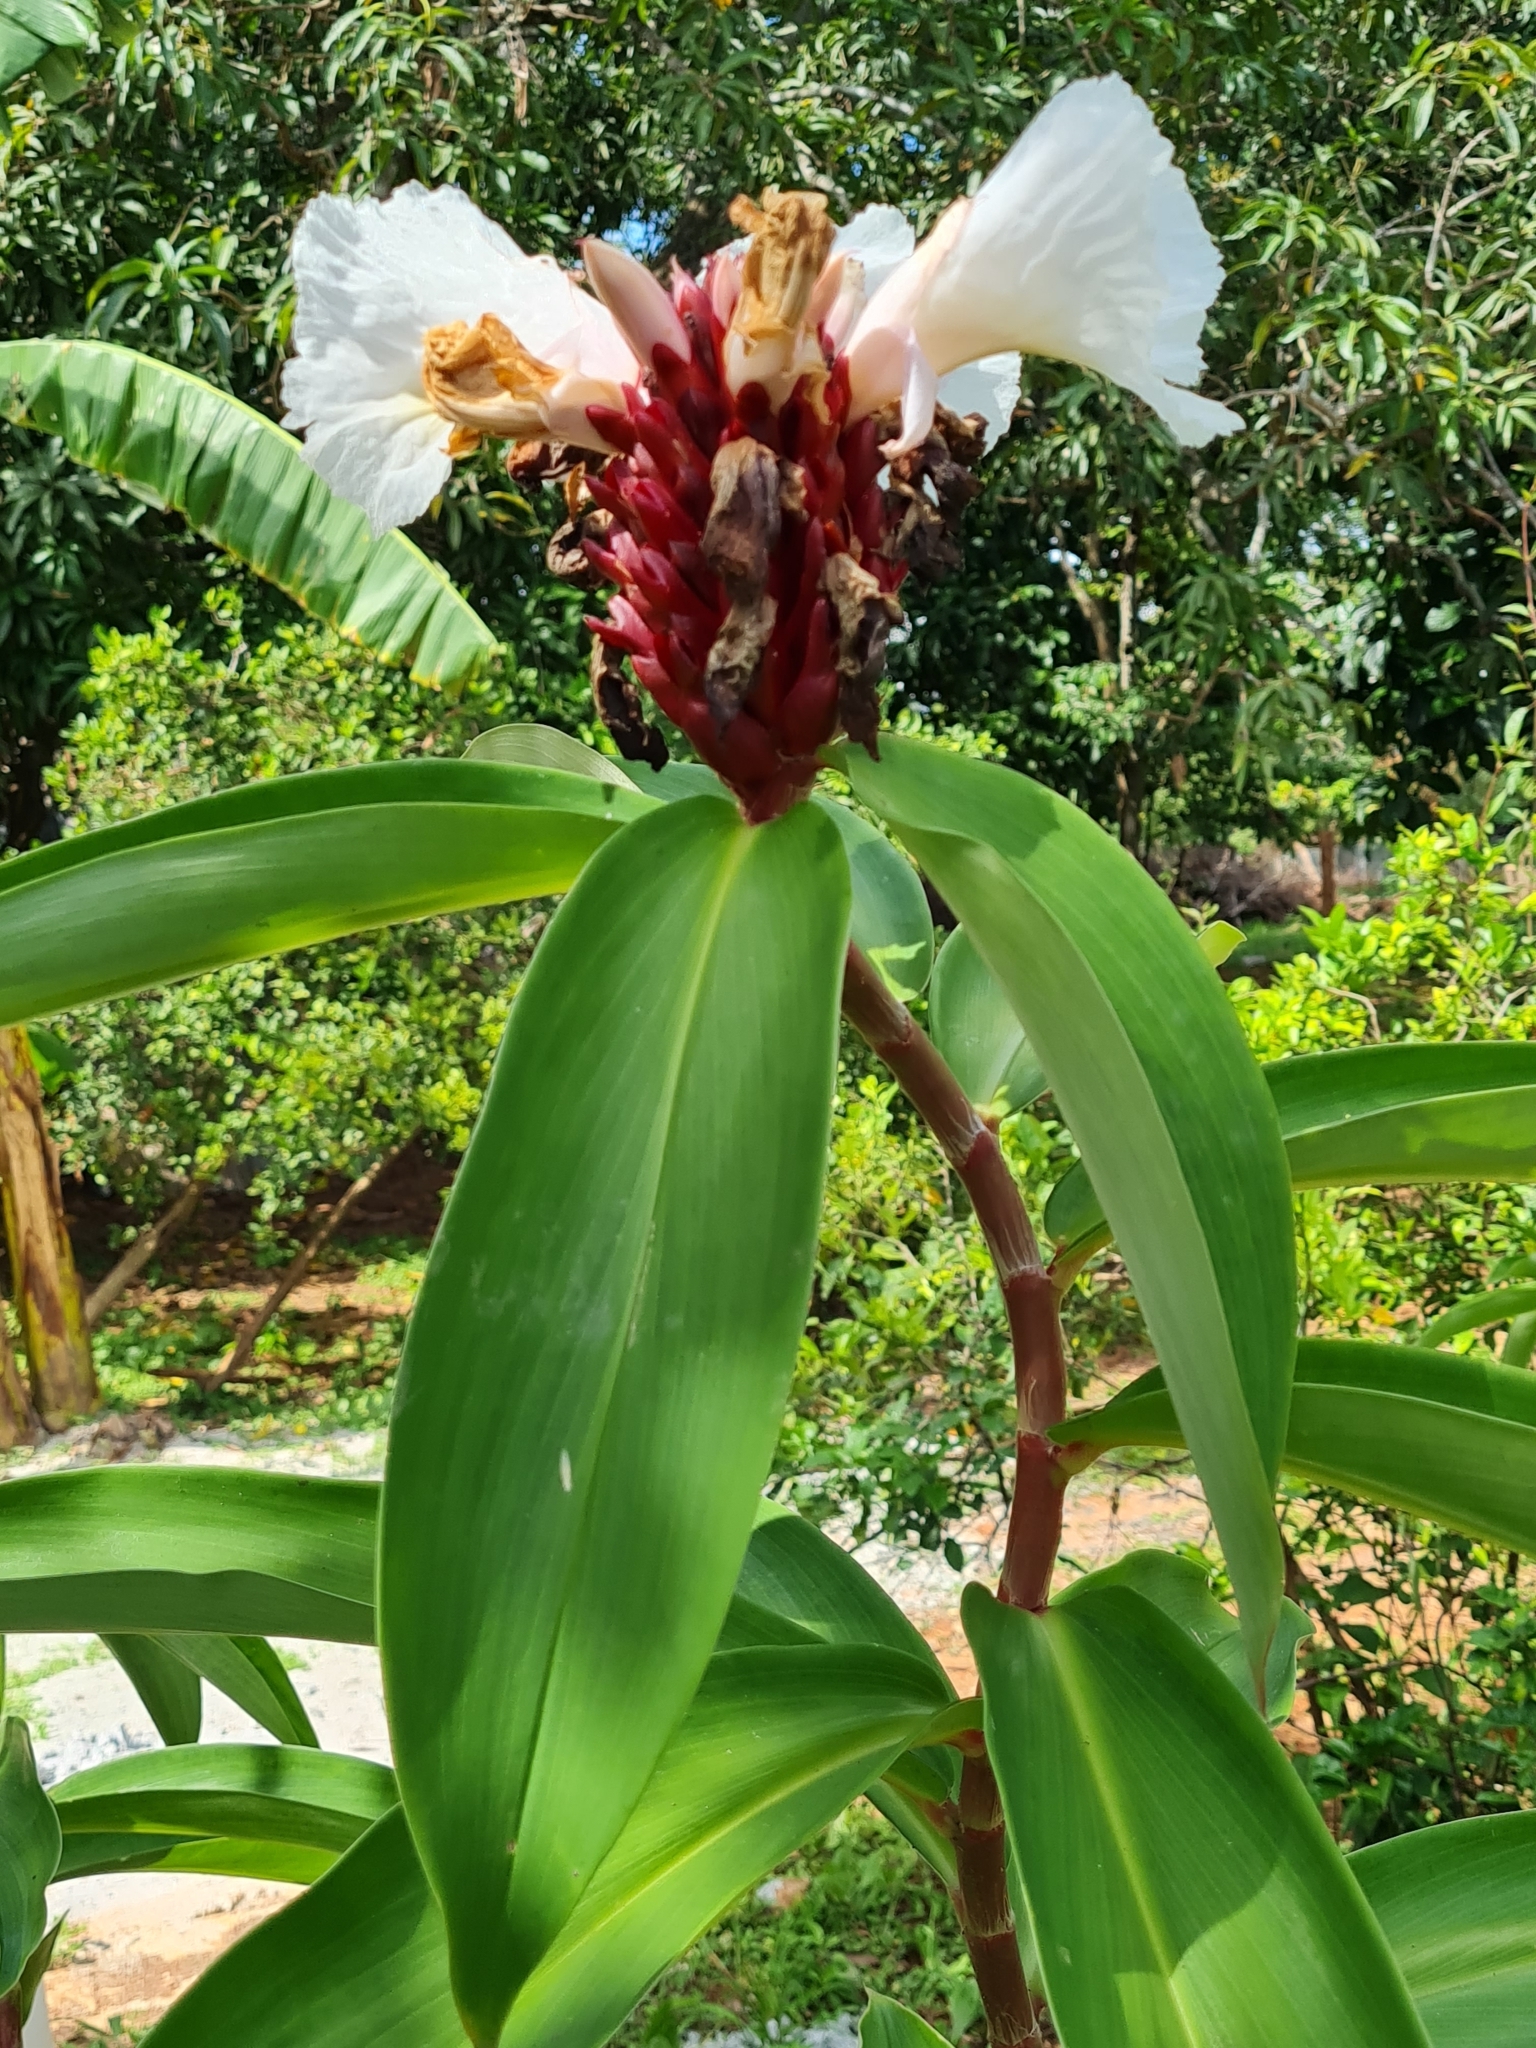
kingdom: Plantae
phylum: Tracheophyta
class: Liliopsida
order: Zingiberales
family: Costaceae
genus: Hellenia
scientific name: Hellenia speciosa
